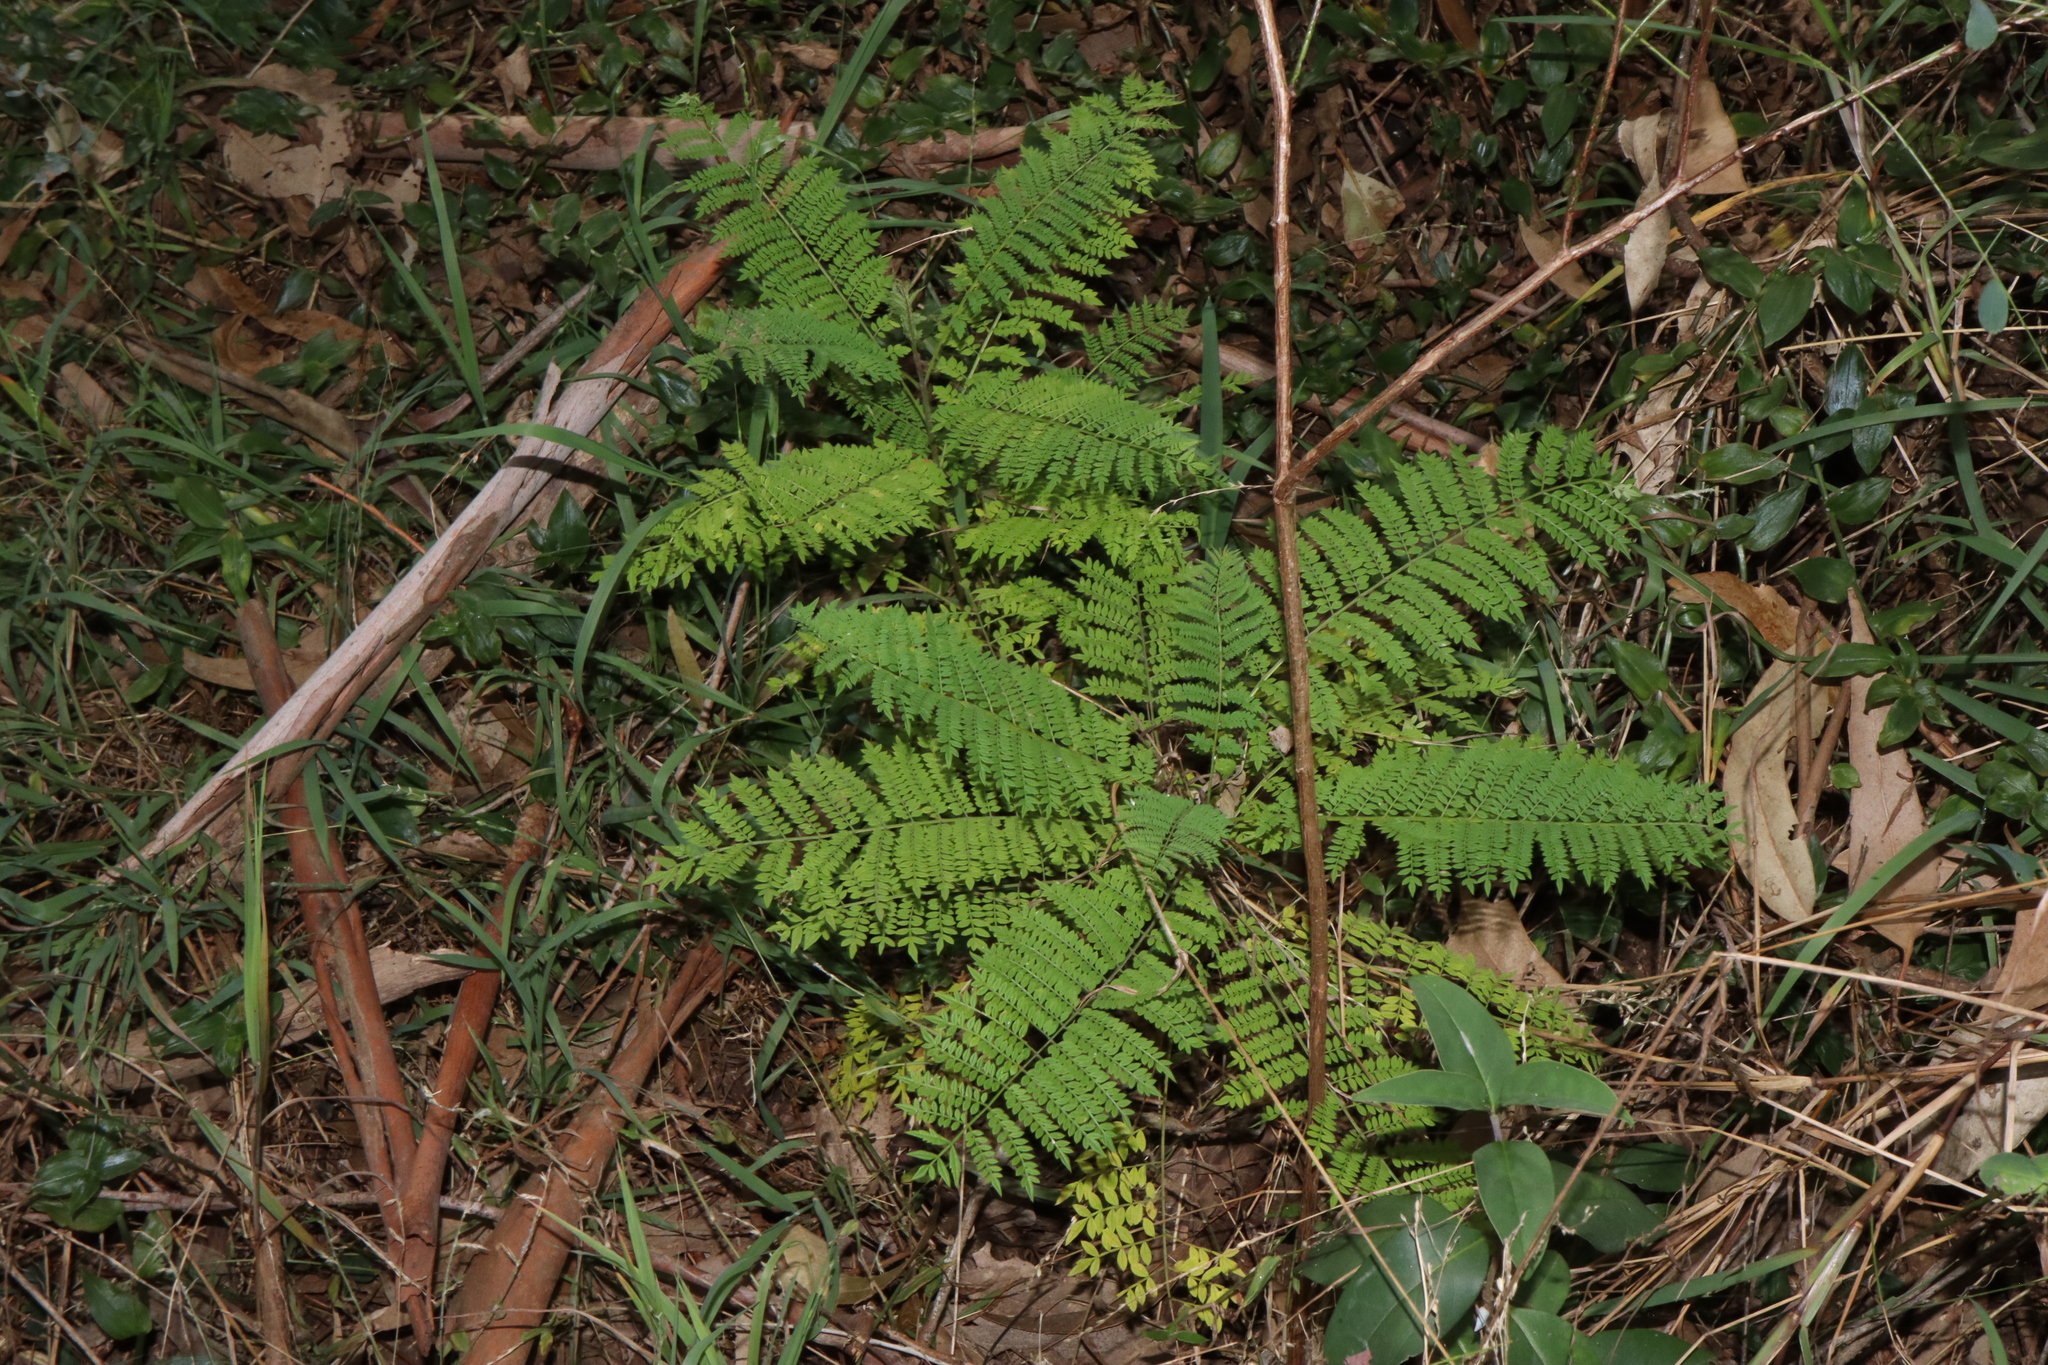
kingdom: Plantae
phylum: Tracheophyta
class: Magnoliopsida
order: Lamiales
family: Bignoniaceae
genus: Jacaranda
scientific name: Jacaranda mimosifolia
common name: Black poui
